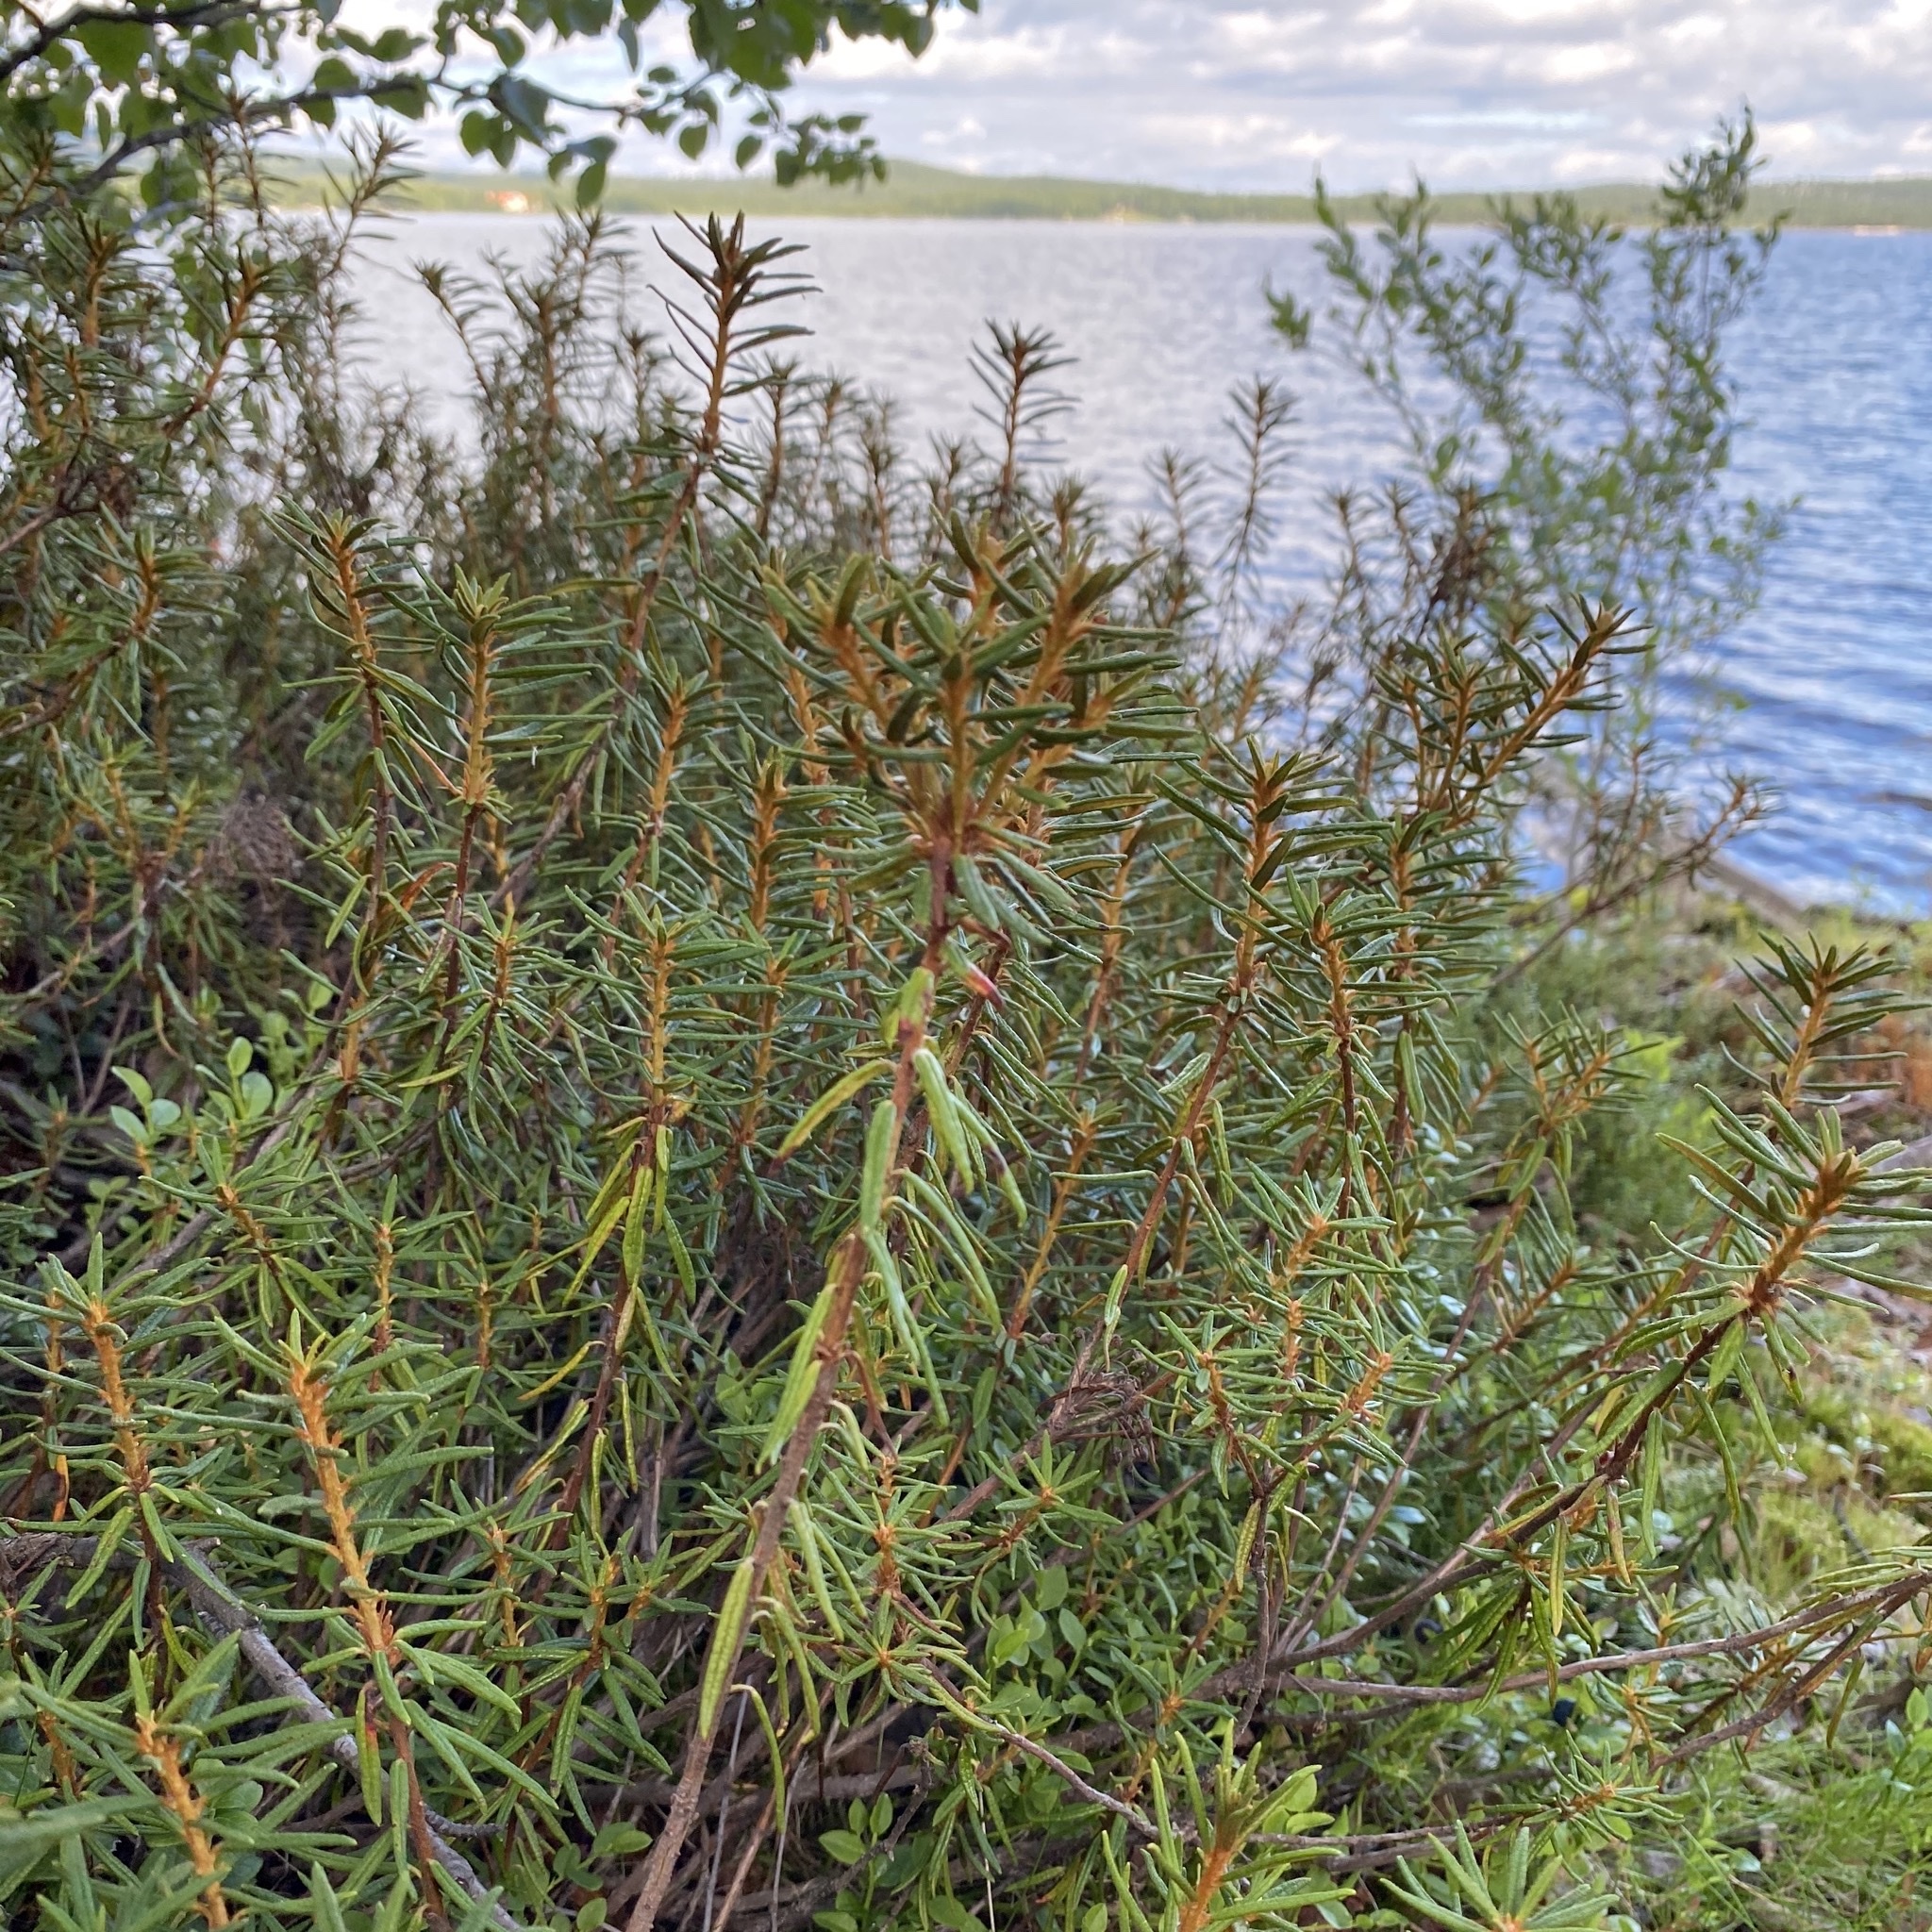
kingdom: Plantae
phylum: Tracheophyta
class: Magnoliopsida
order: Ericales
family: Ericaceae
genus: Rhododendron
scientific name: Rhododendron tomentosum
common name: Marsh labrador tea
